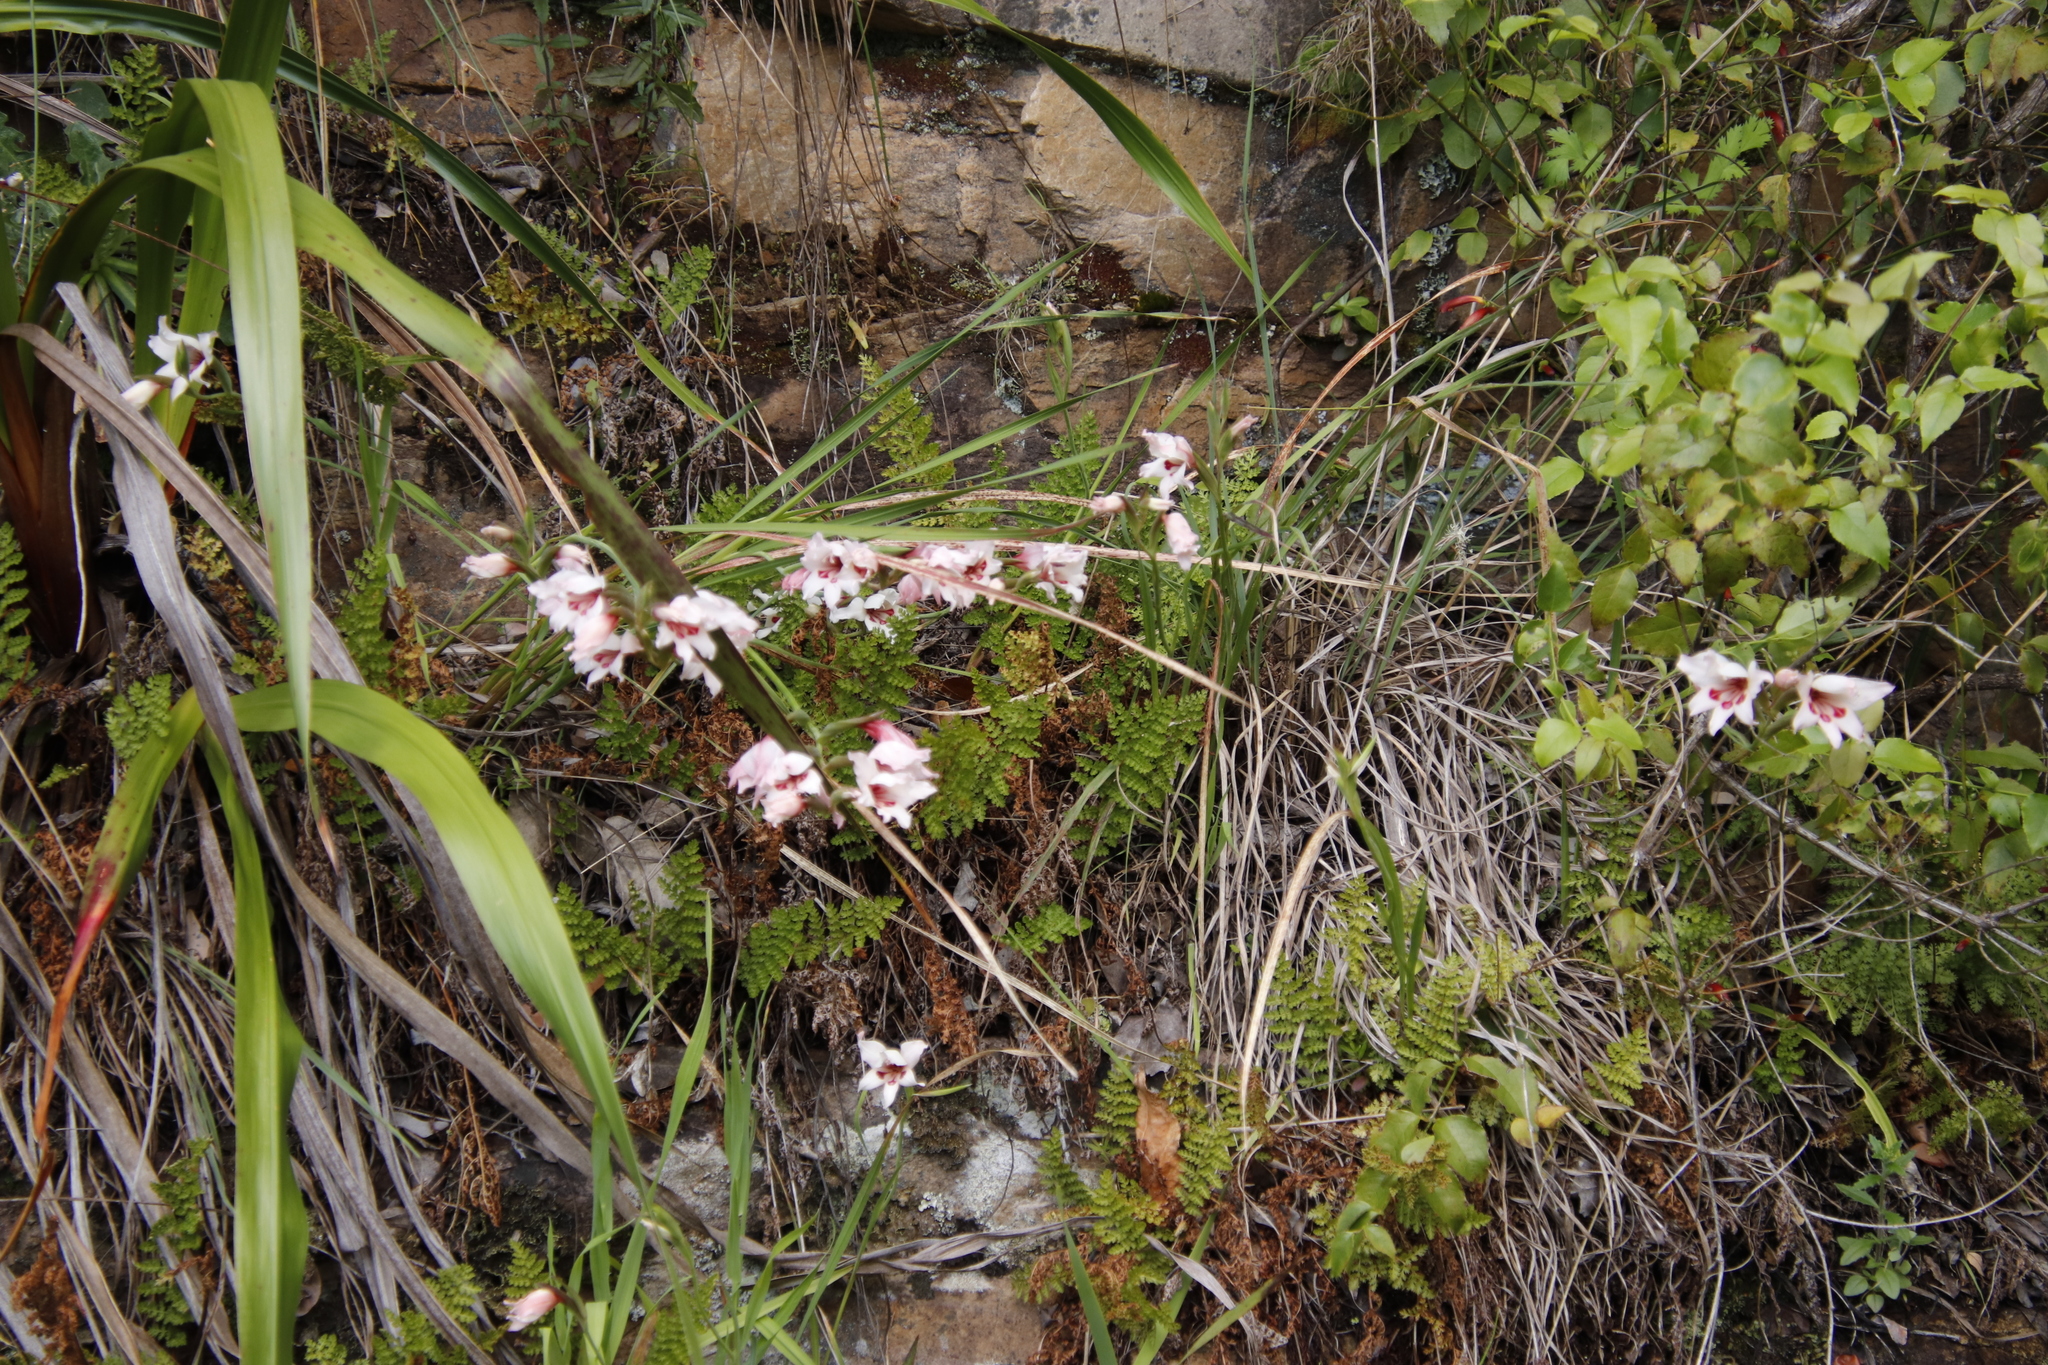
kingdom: Plantae
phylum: Tracheophyta
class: Liliopsida
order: Asparagales
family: Iridaceae
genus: Gladiolus
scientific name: Gladiolus carneus
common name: Painted-lady
